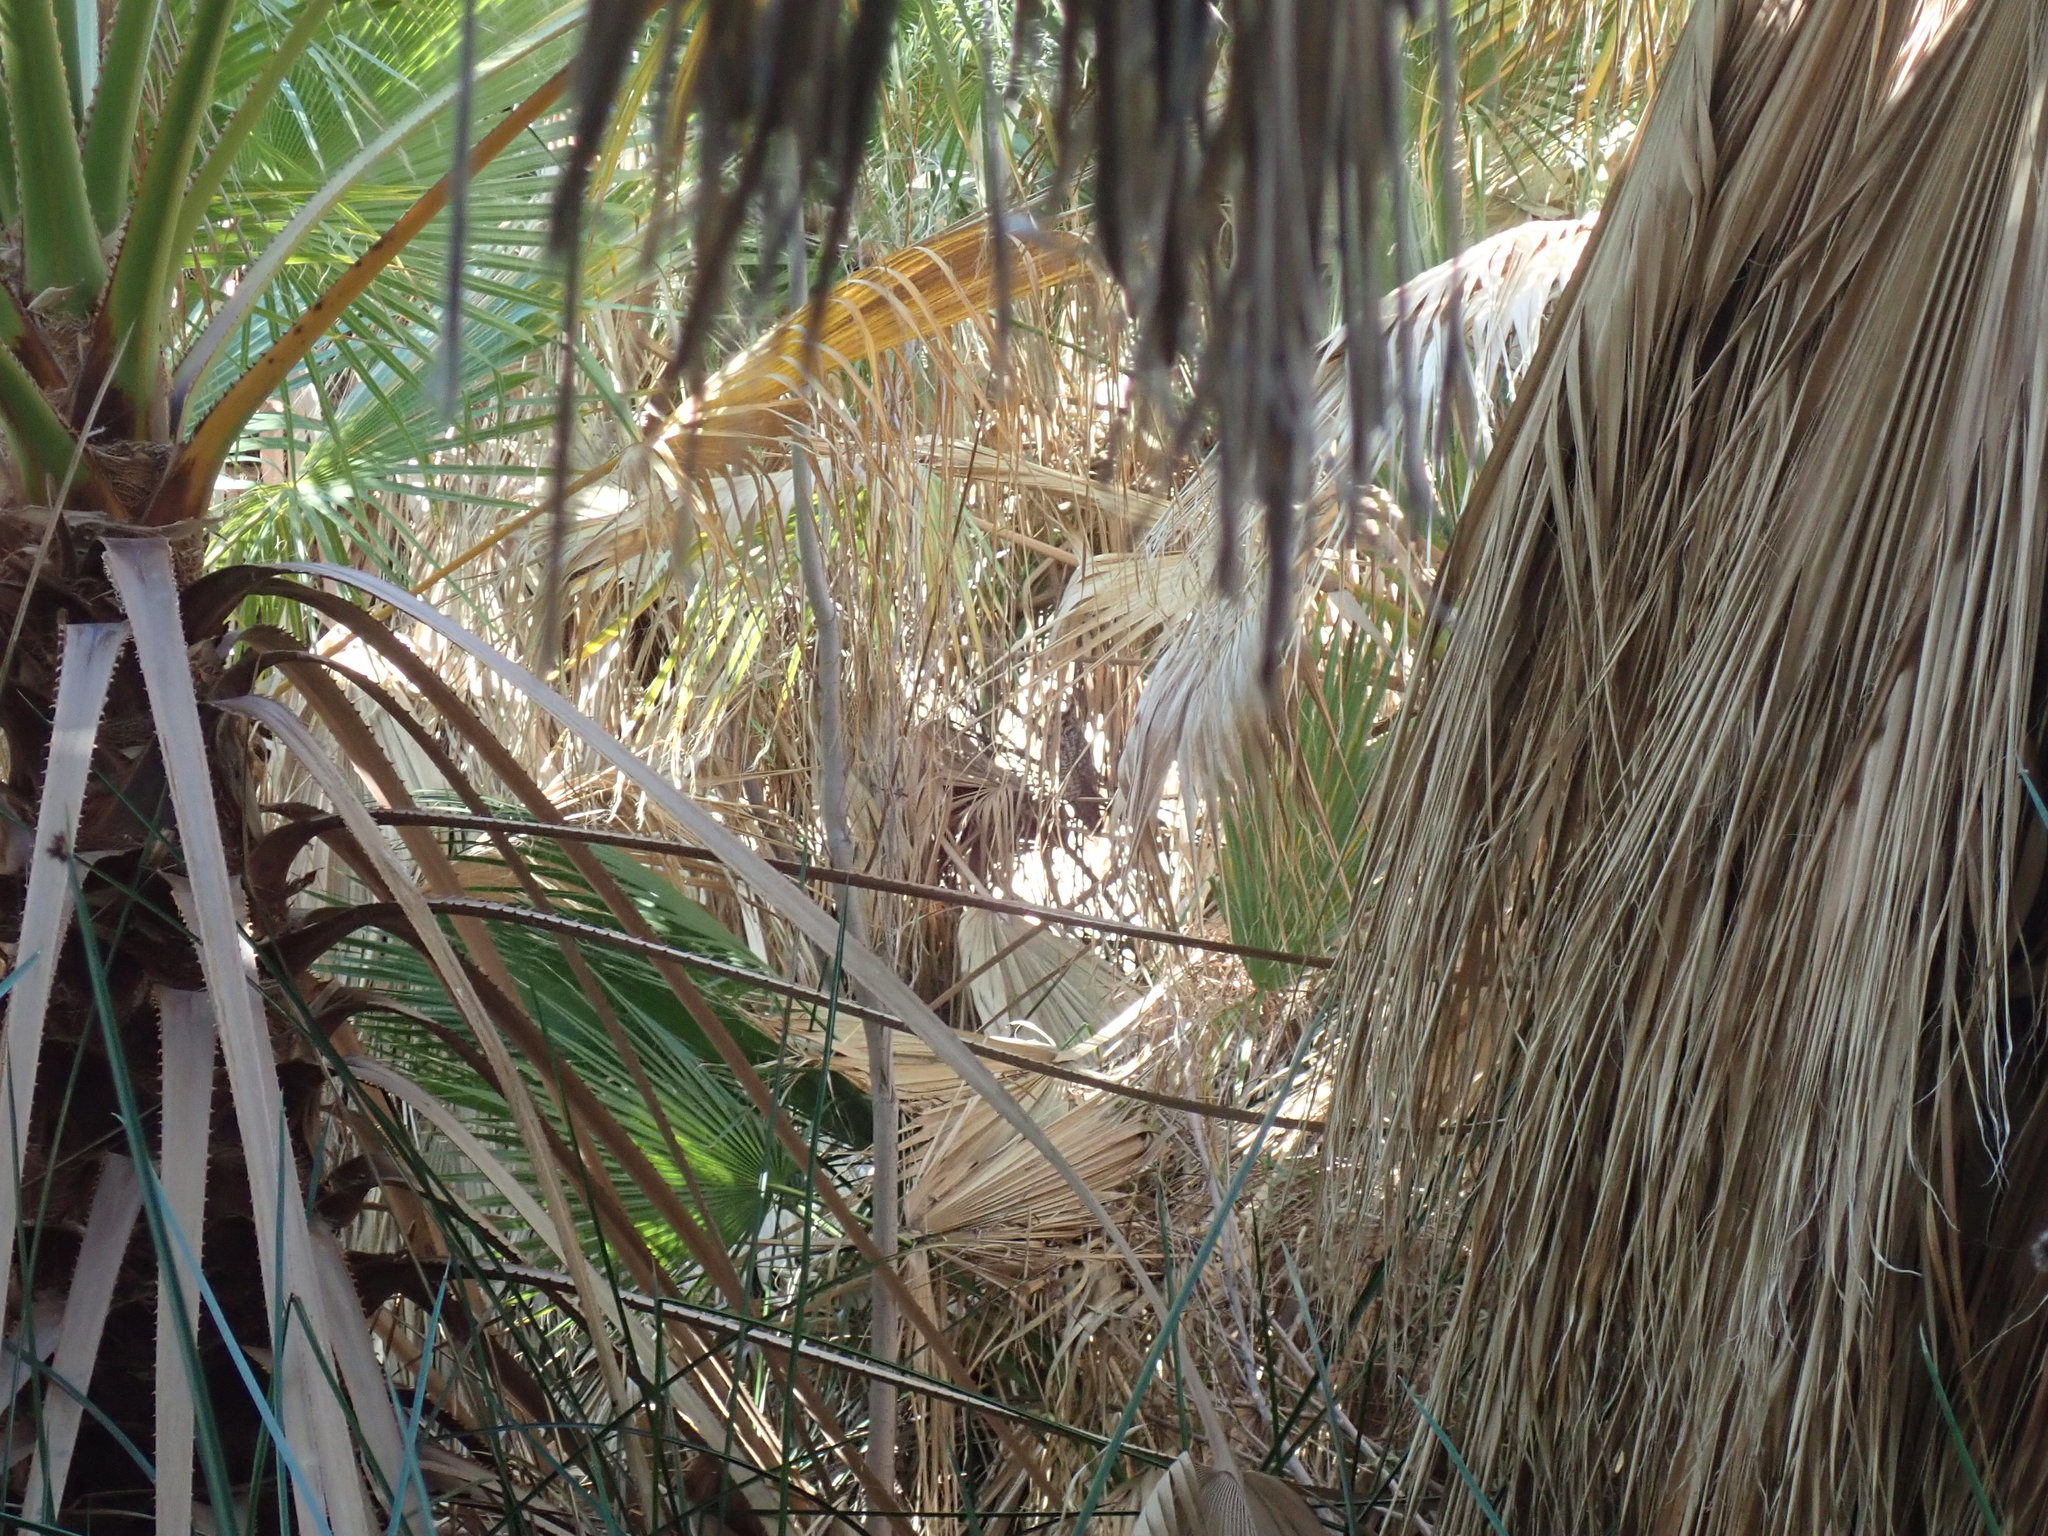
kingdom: Animalia
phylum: Chordata
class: Aves
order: Strigiformes
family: Strigidae
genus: Asio
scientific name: Asio otus
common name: Long-eared owl
